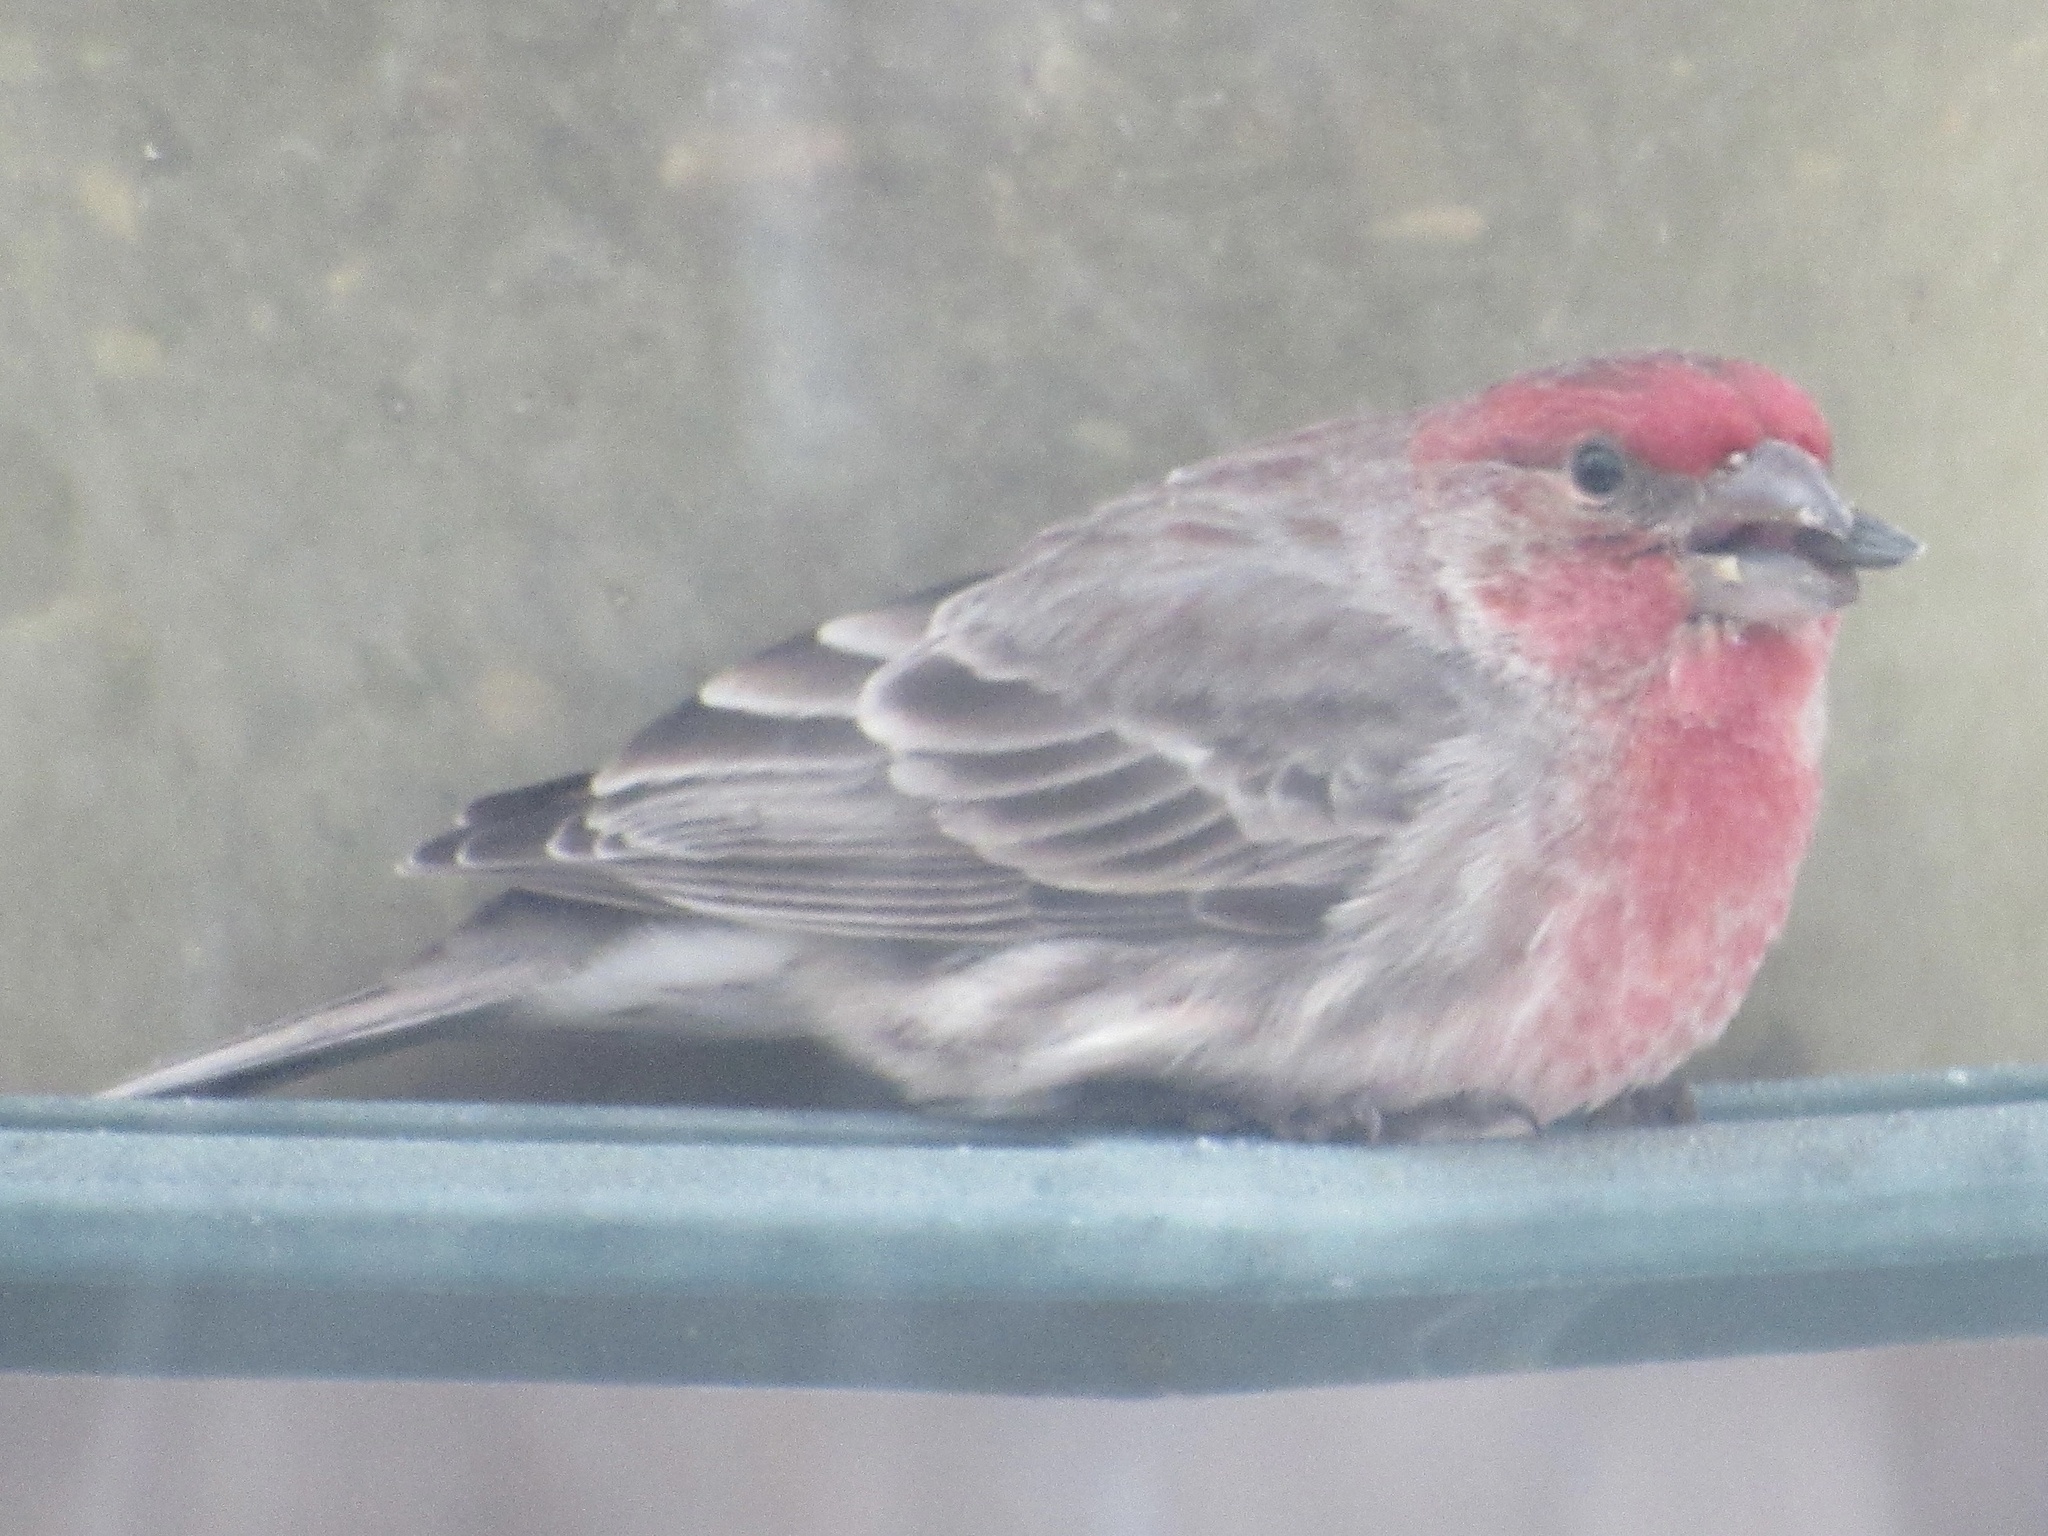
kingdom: Animalia
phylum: Chordata
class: Aves
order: Passeriformes
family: Fringillidae
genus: Haemorhous
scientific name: Haemorhous mexicanus
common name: House finch
